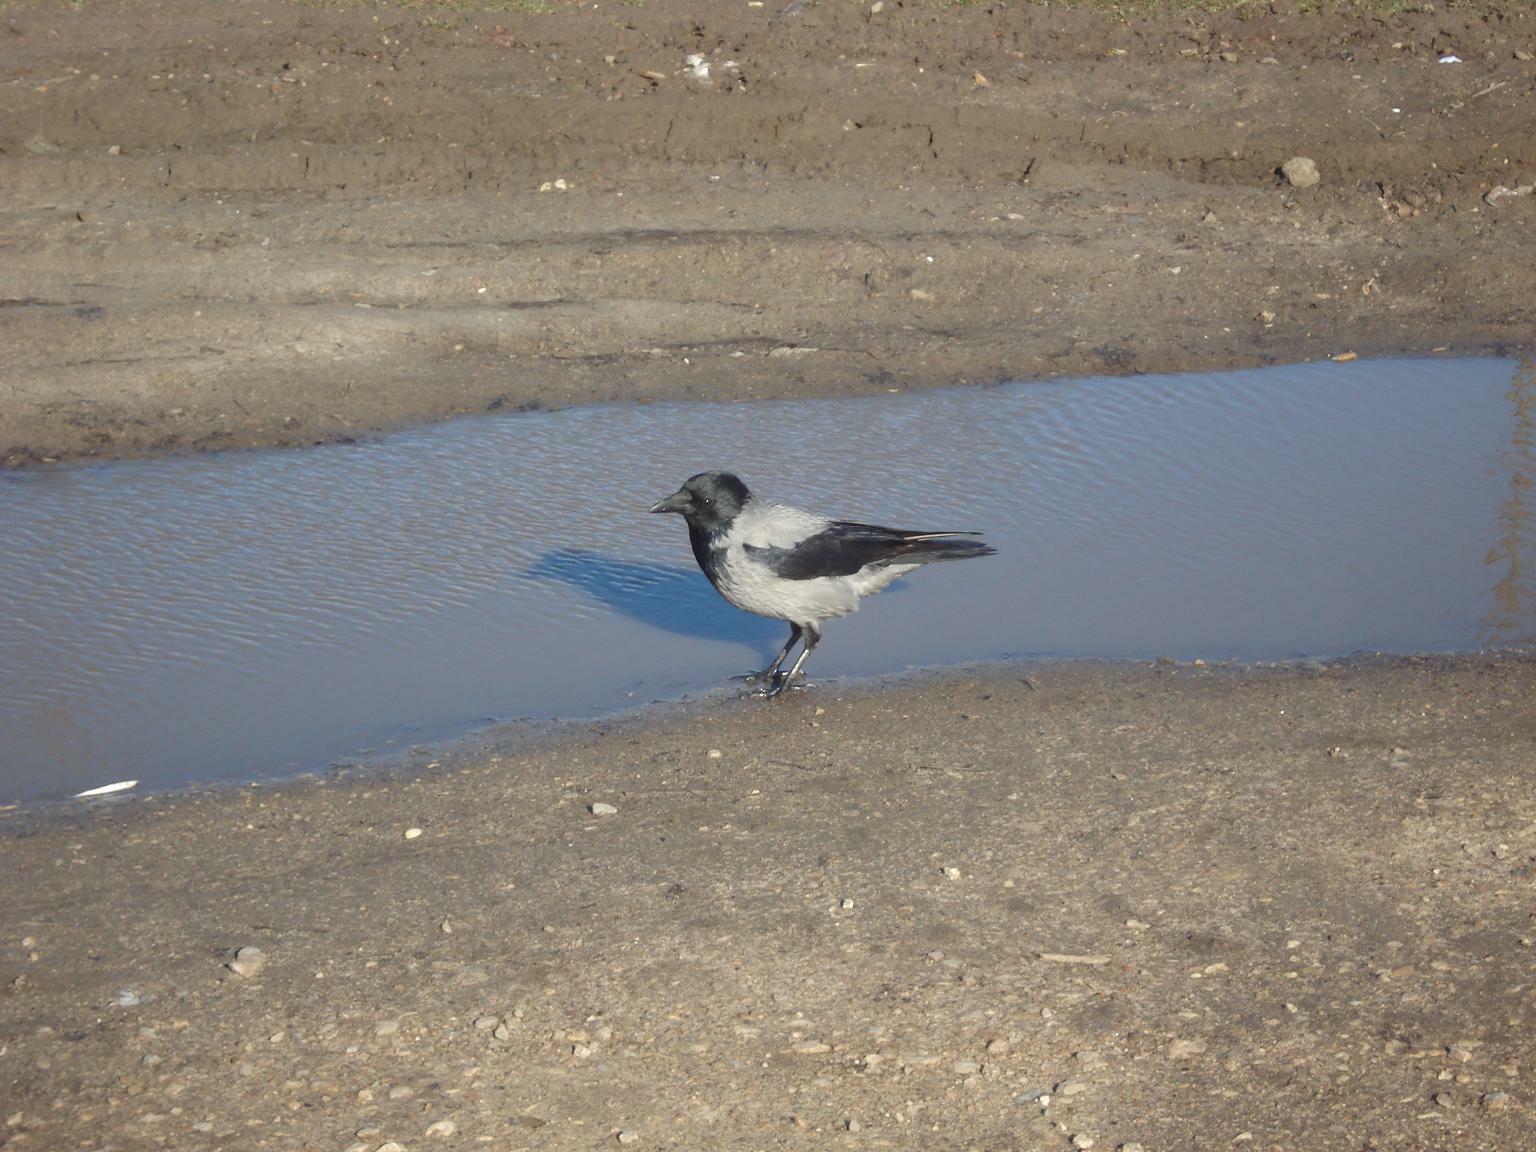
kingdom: Animalia
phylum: Chordata
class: Aves
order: Passeriformes
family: Corvidae
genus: Corvus
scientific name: Corvus cornix
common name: Hooded crow
